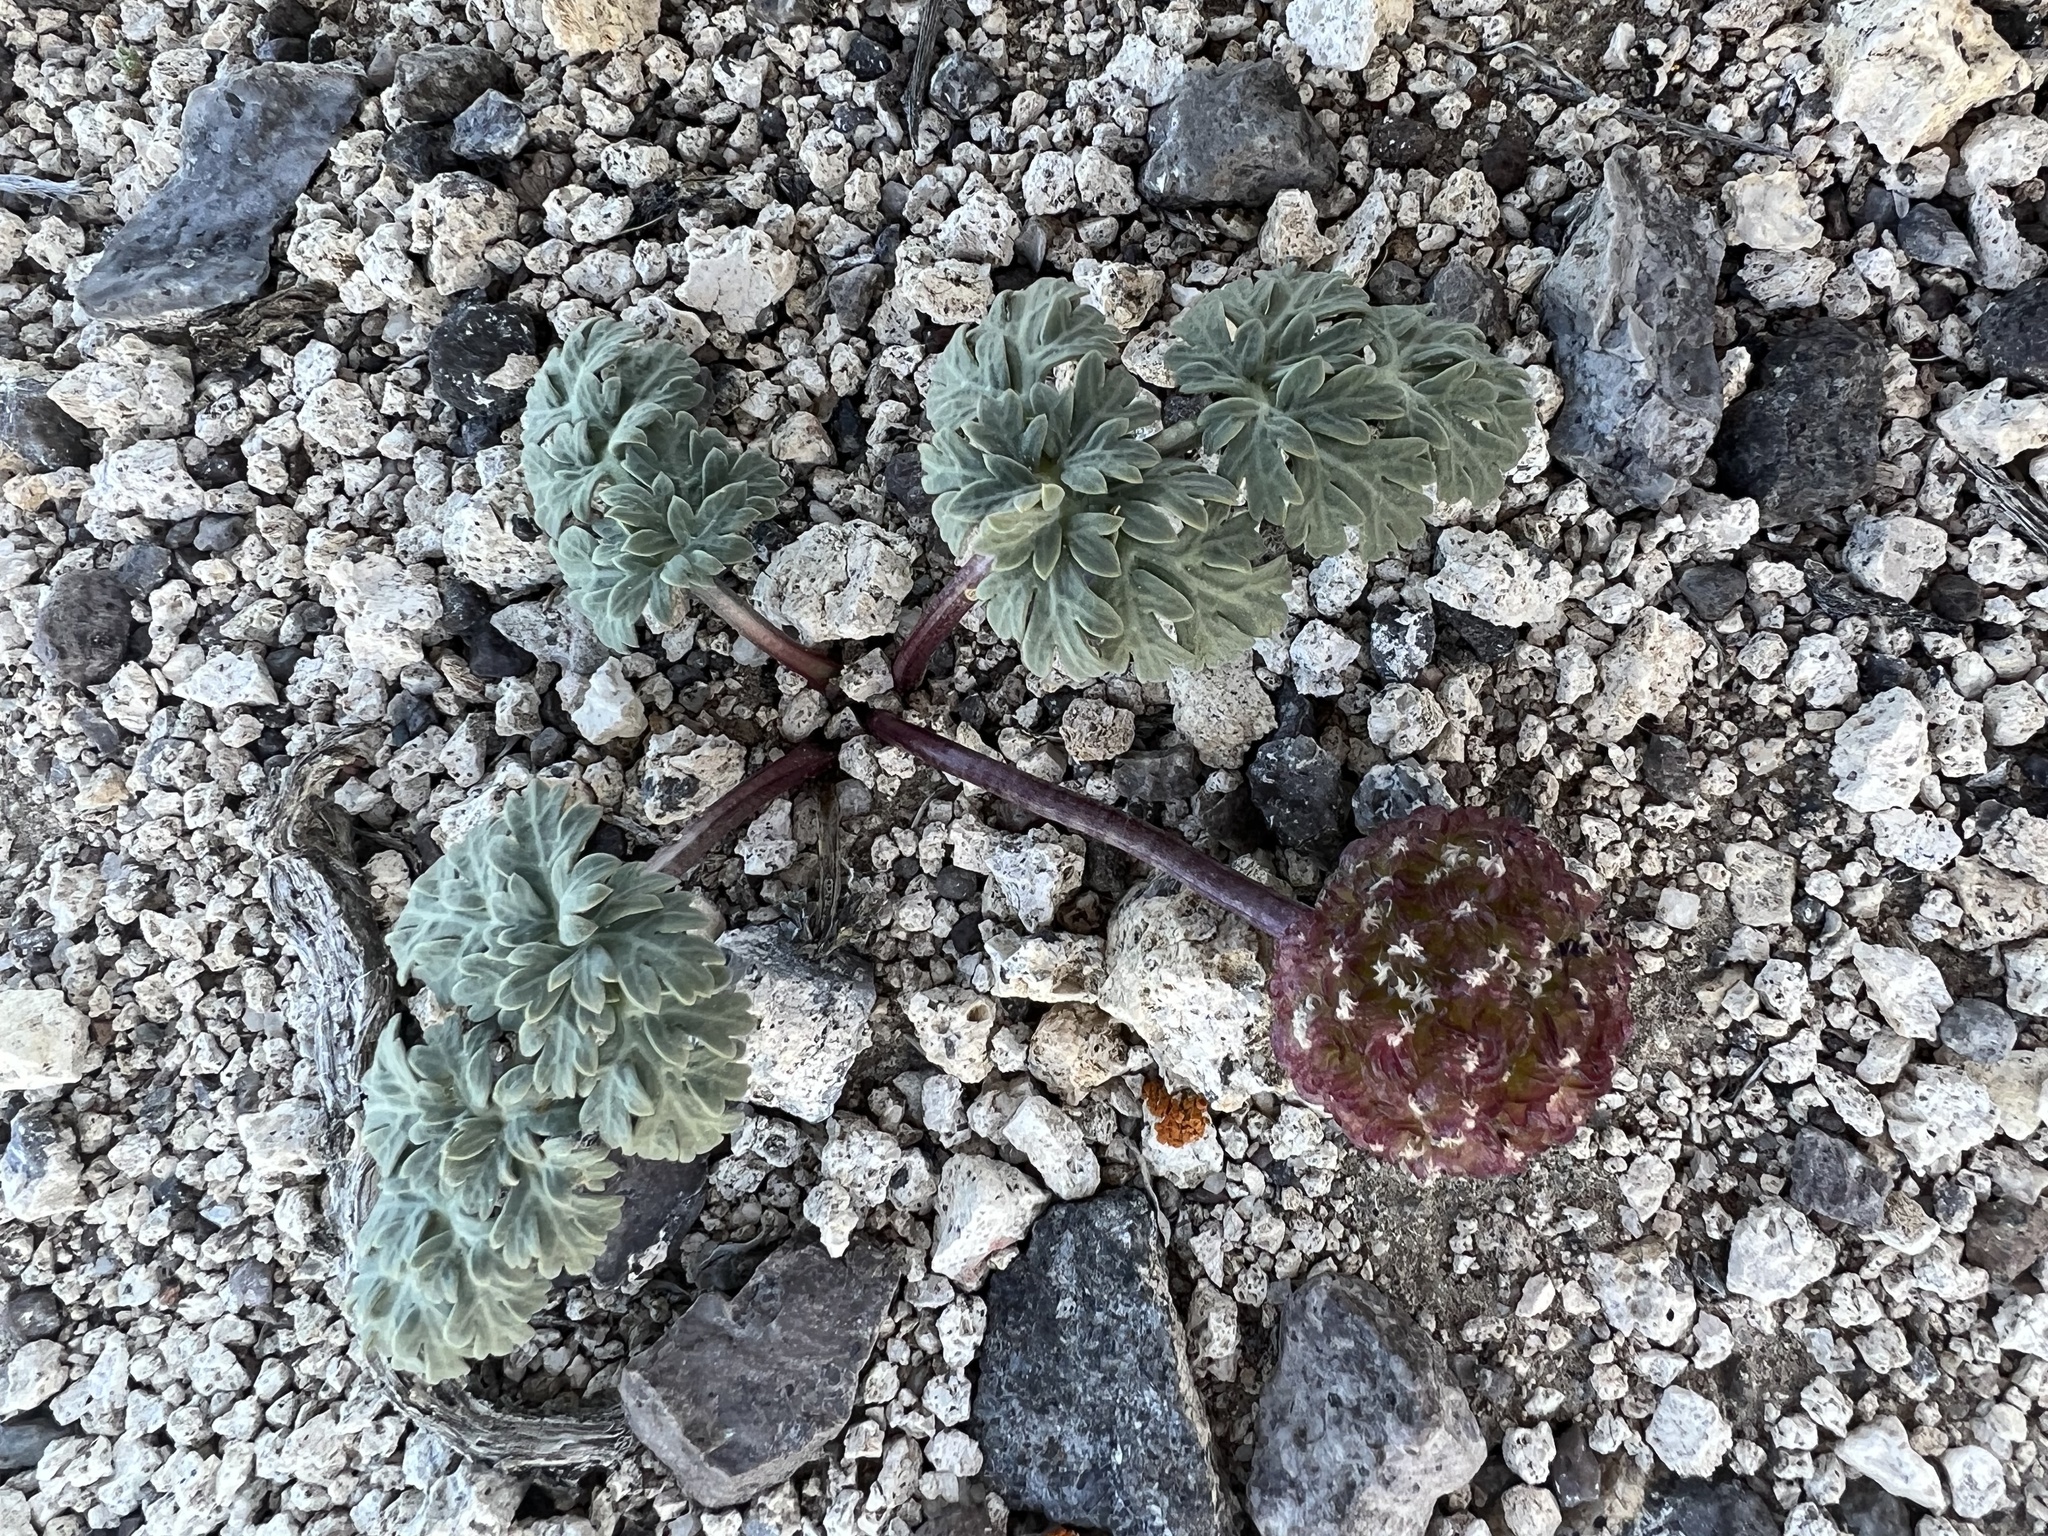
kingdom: Plantae
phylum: Tracheophyta
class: Magnoliopsida
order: Apiales
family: Apiaceae
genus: Cymopterus
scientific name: Cymopterus globosus
